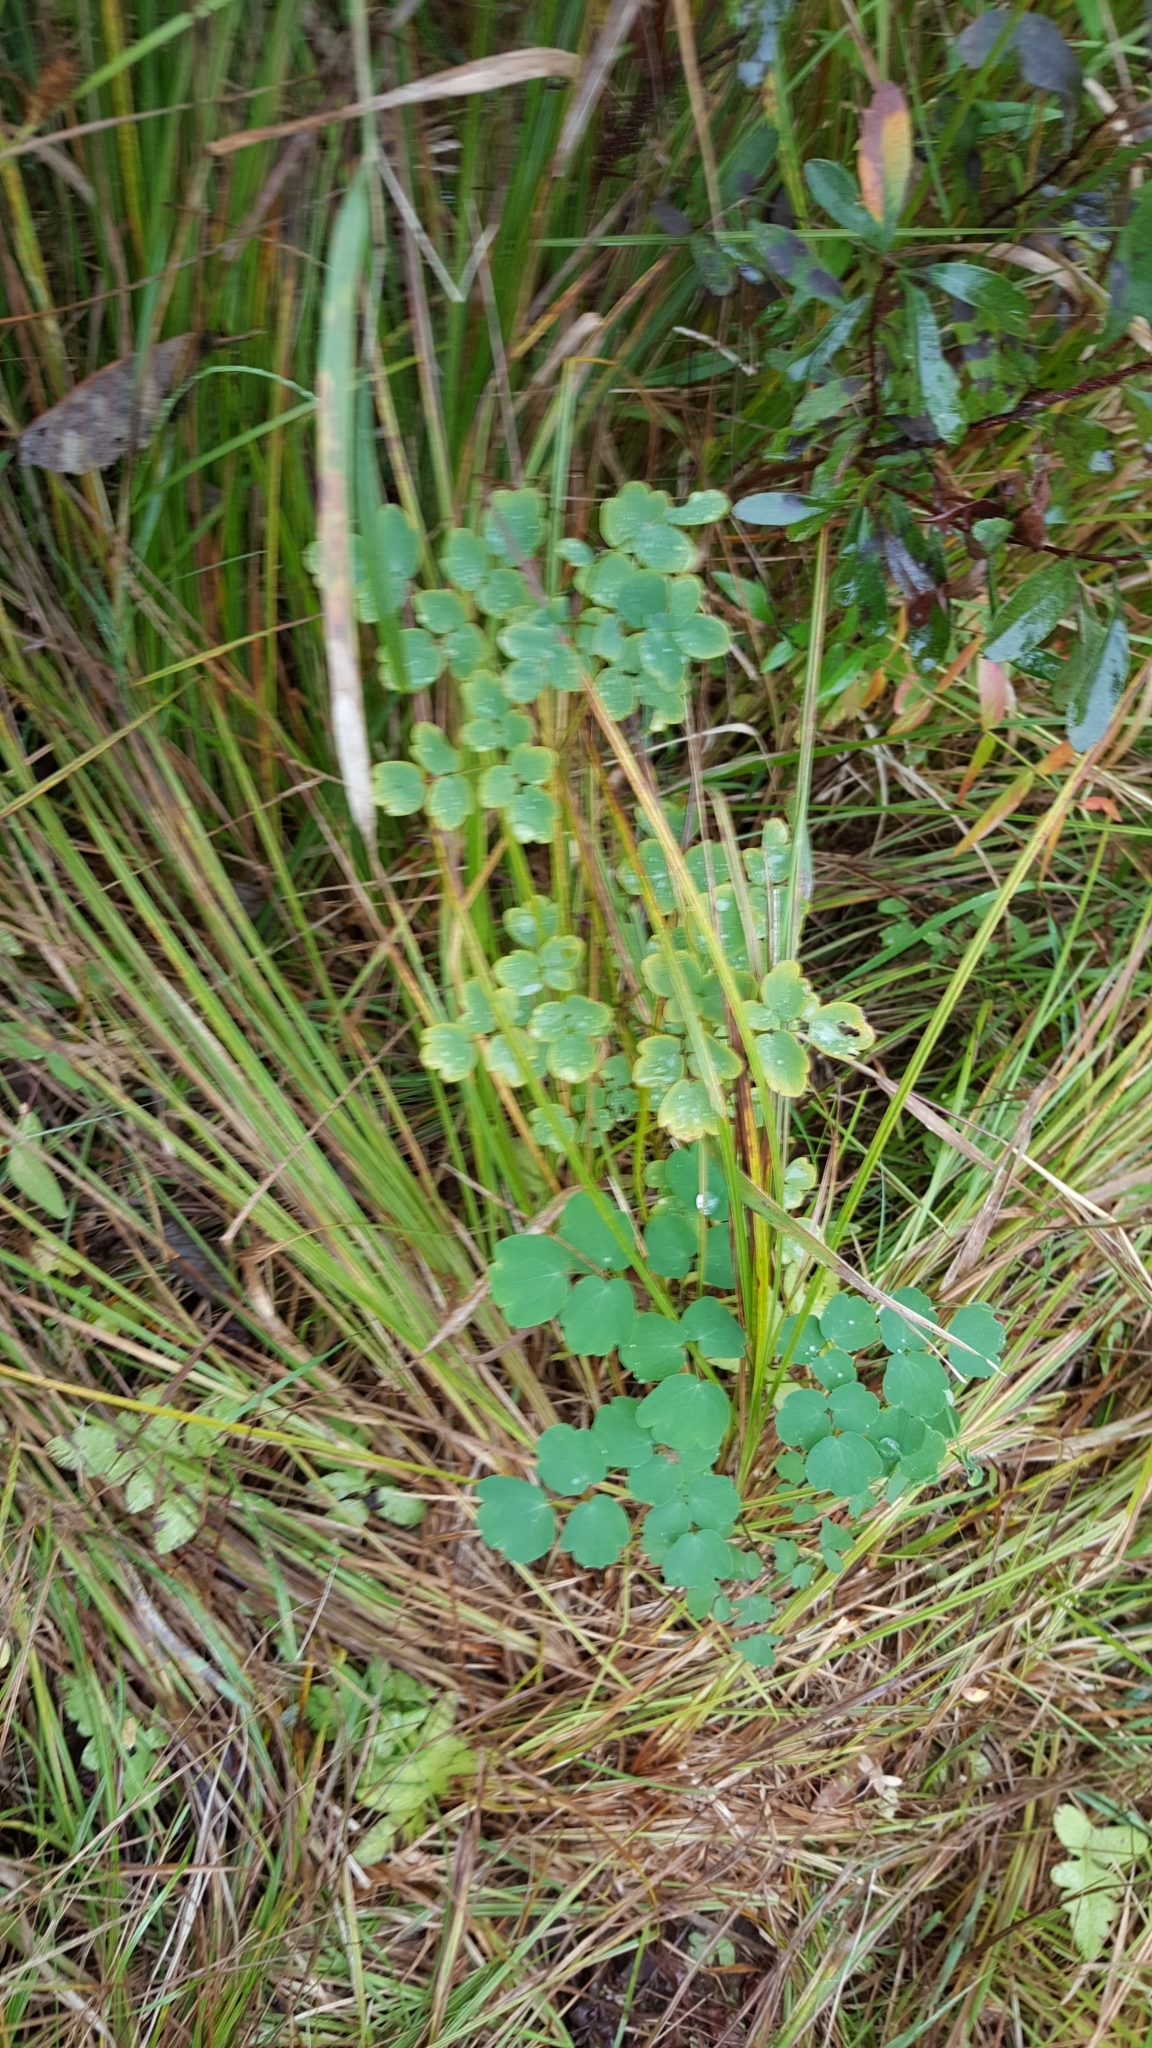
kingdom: Plantae
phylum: Tracheophyta
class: Magnoliopsida
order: Ranunculales
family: Ranunculaceae
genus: Thalictrum
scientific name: Thalictrum pubescens
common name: King-of-the-meadow
